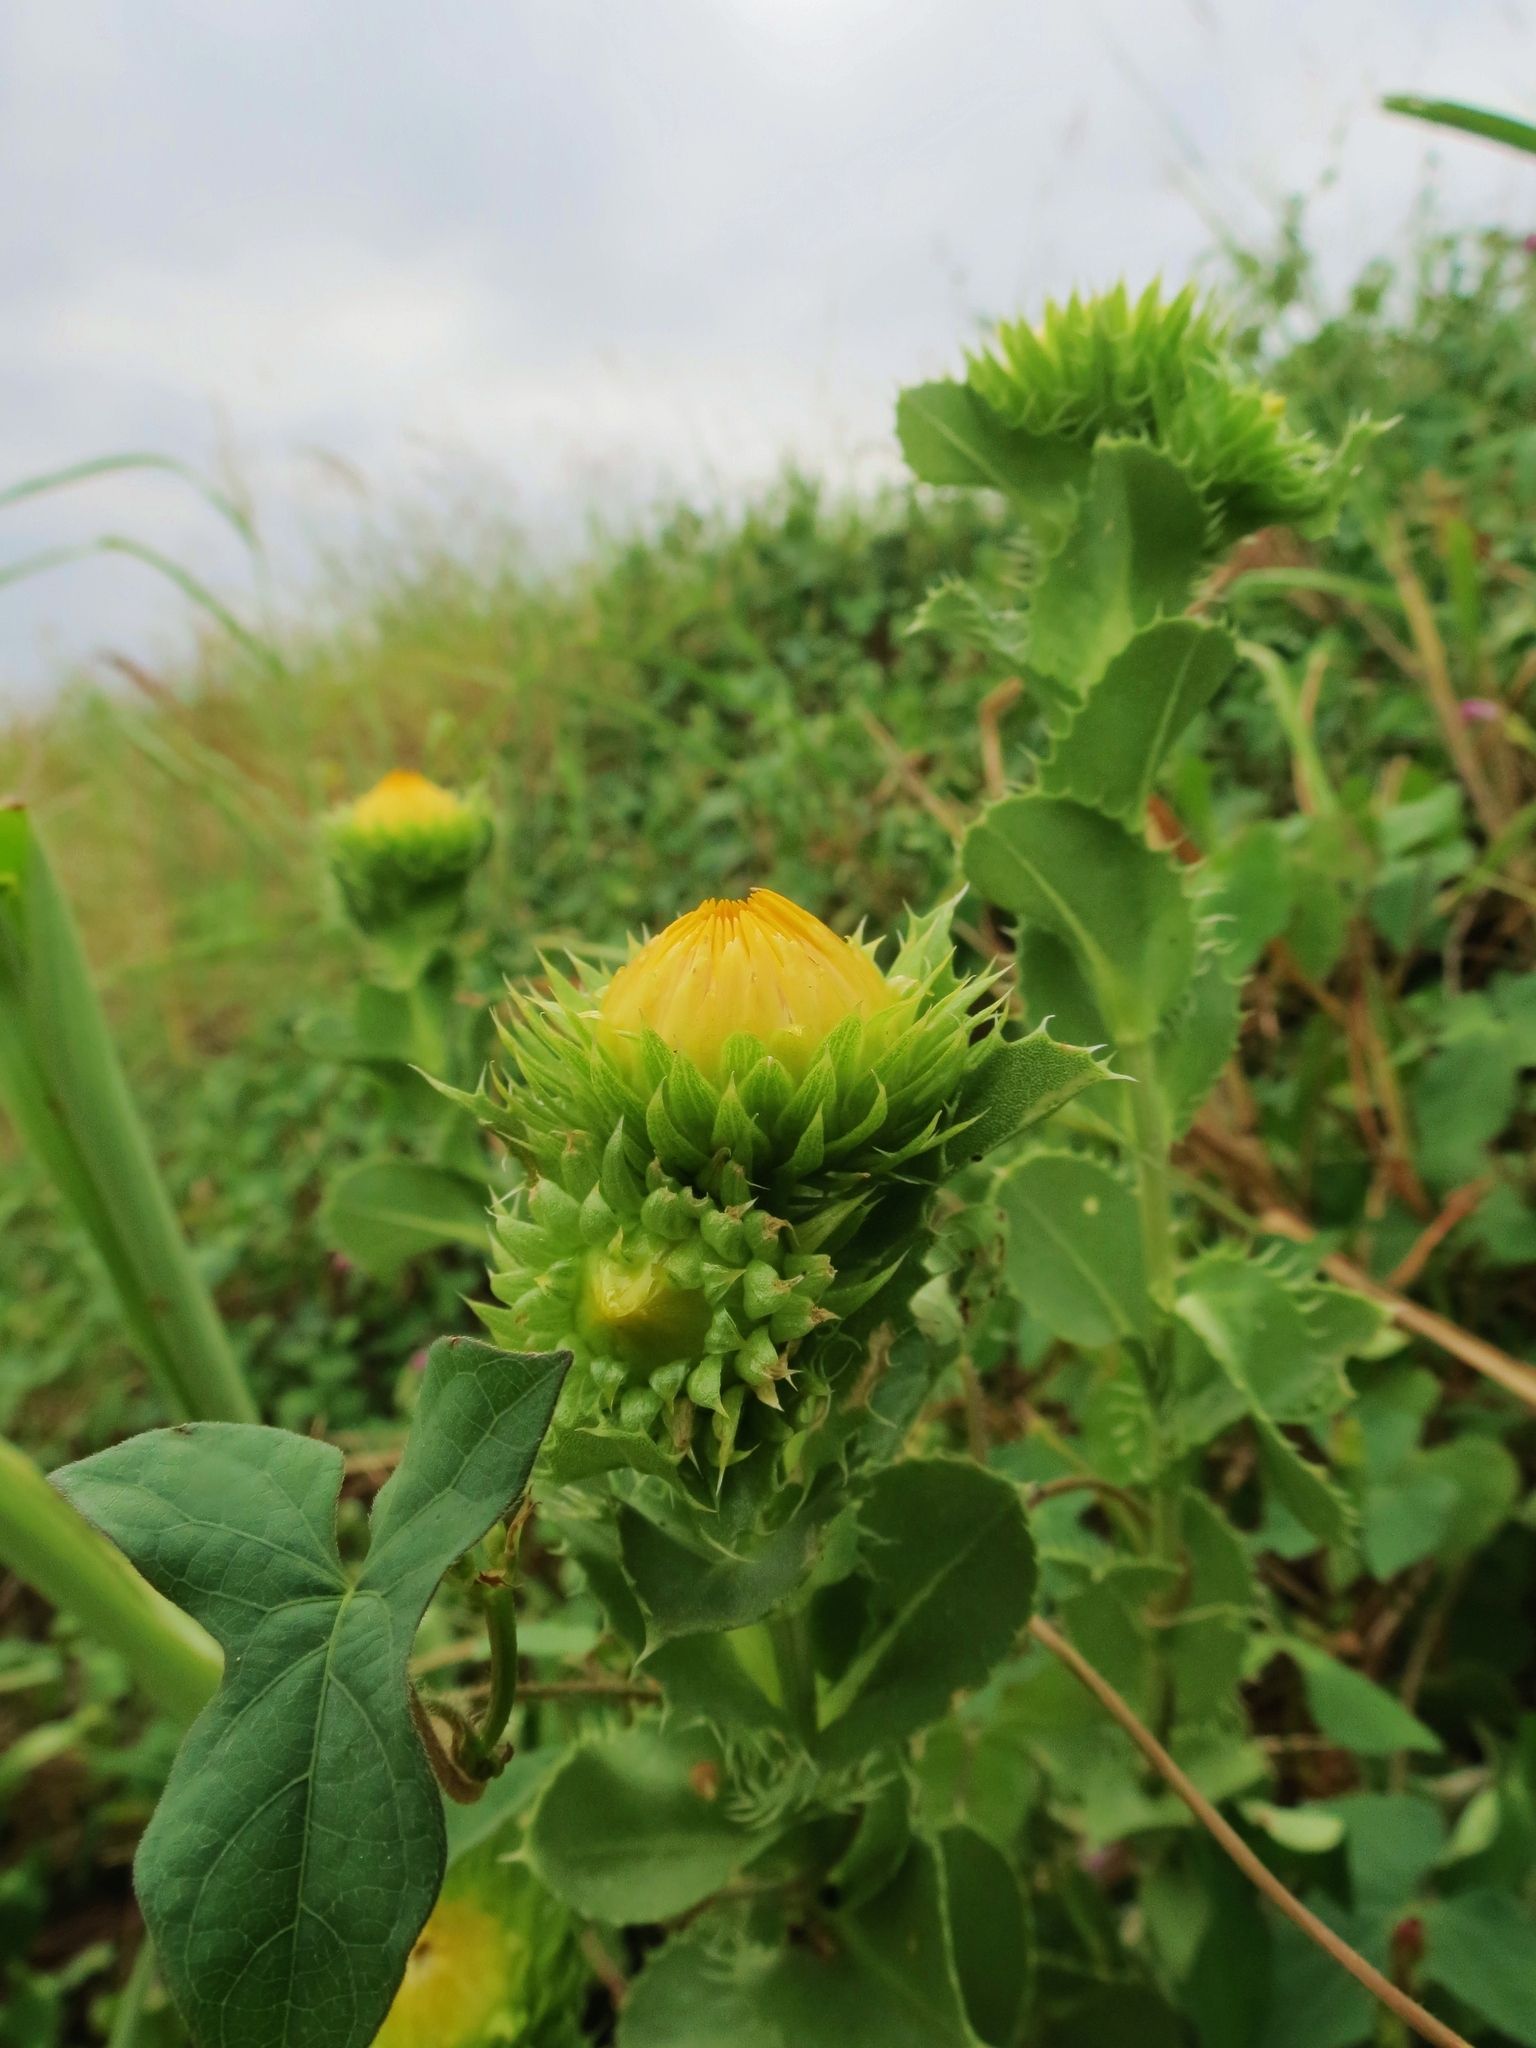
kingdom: Plantae
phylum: Tracheophyta
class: Magnoliopsida
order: Asterales
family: Asteraceae
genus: Grindelia
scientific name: Grindelia ciliata
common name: Goldenweed
